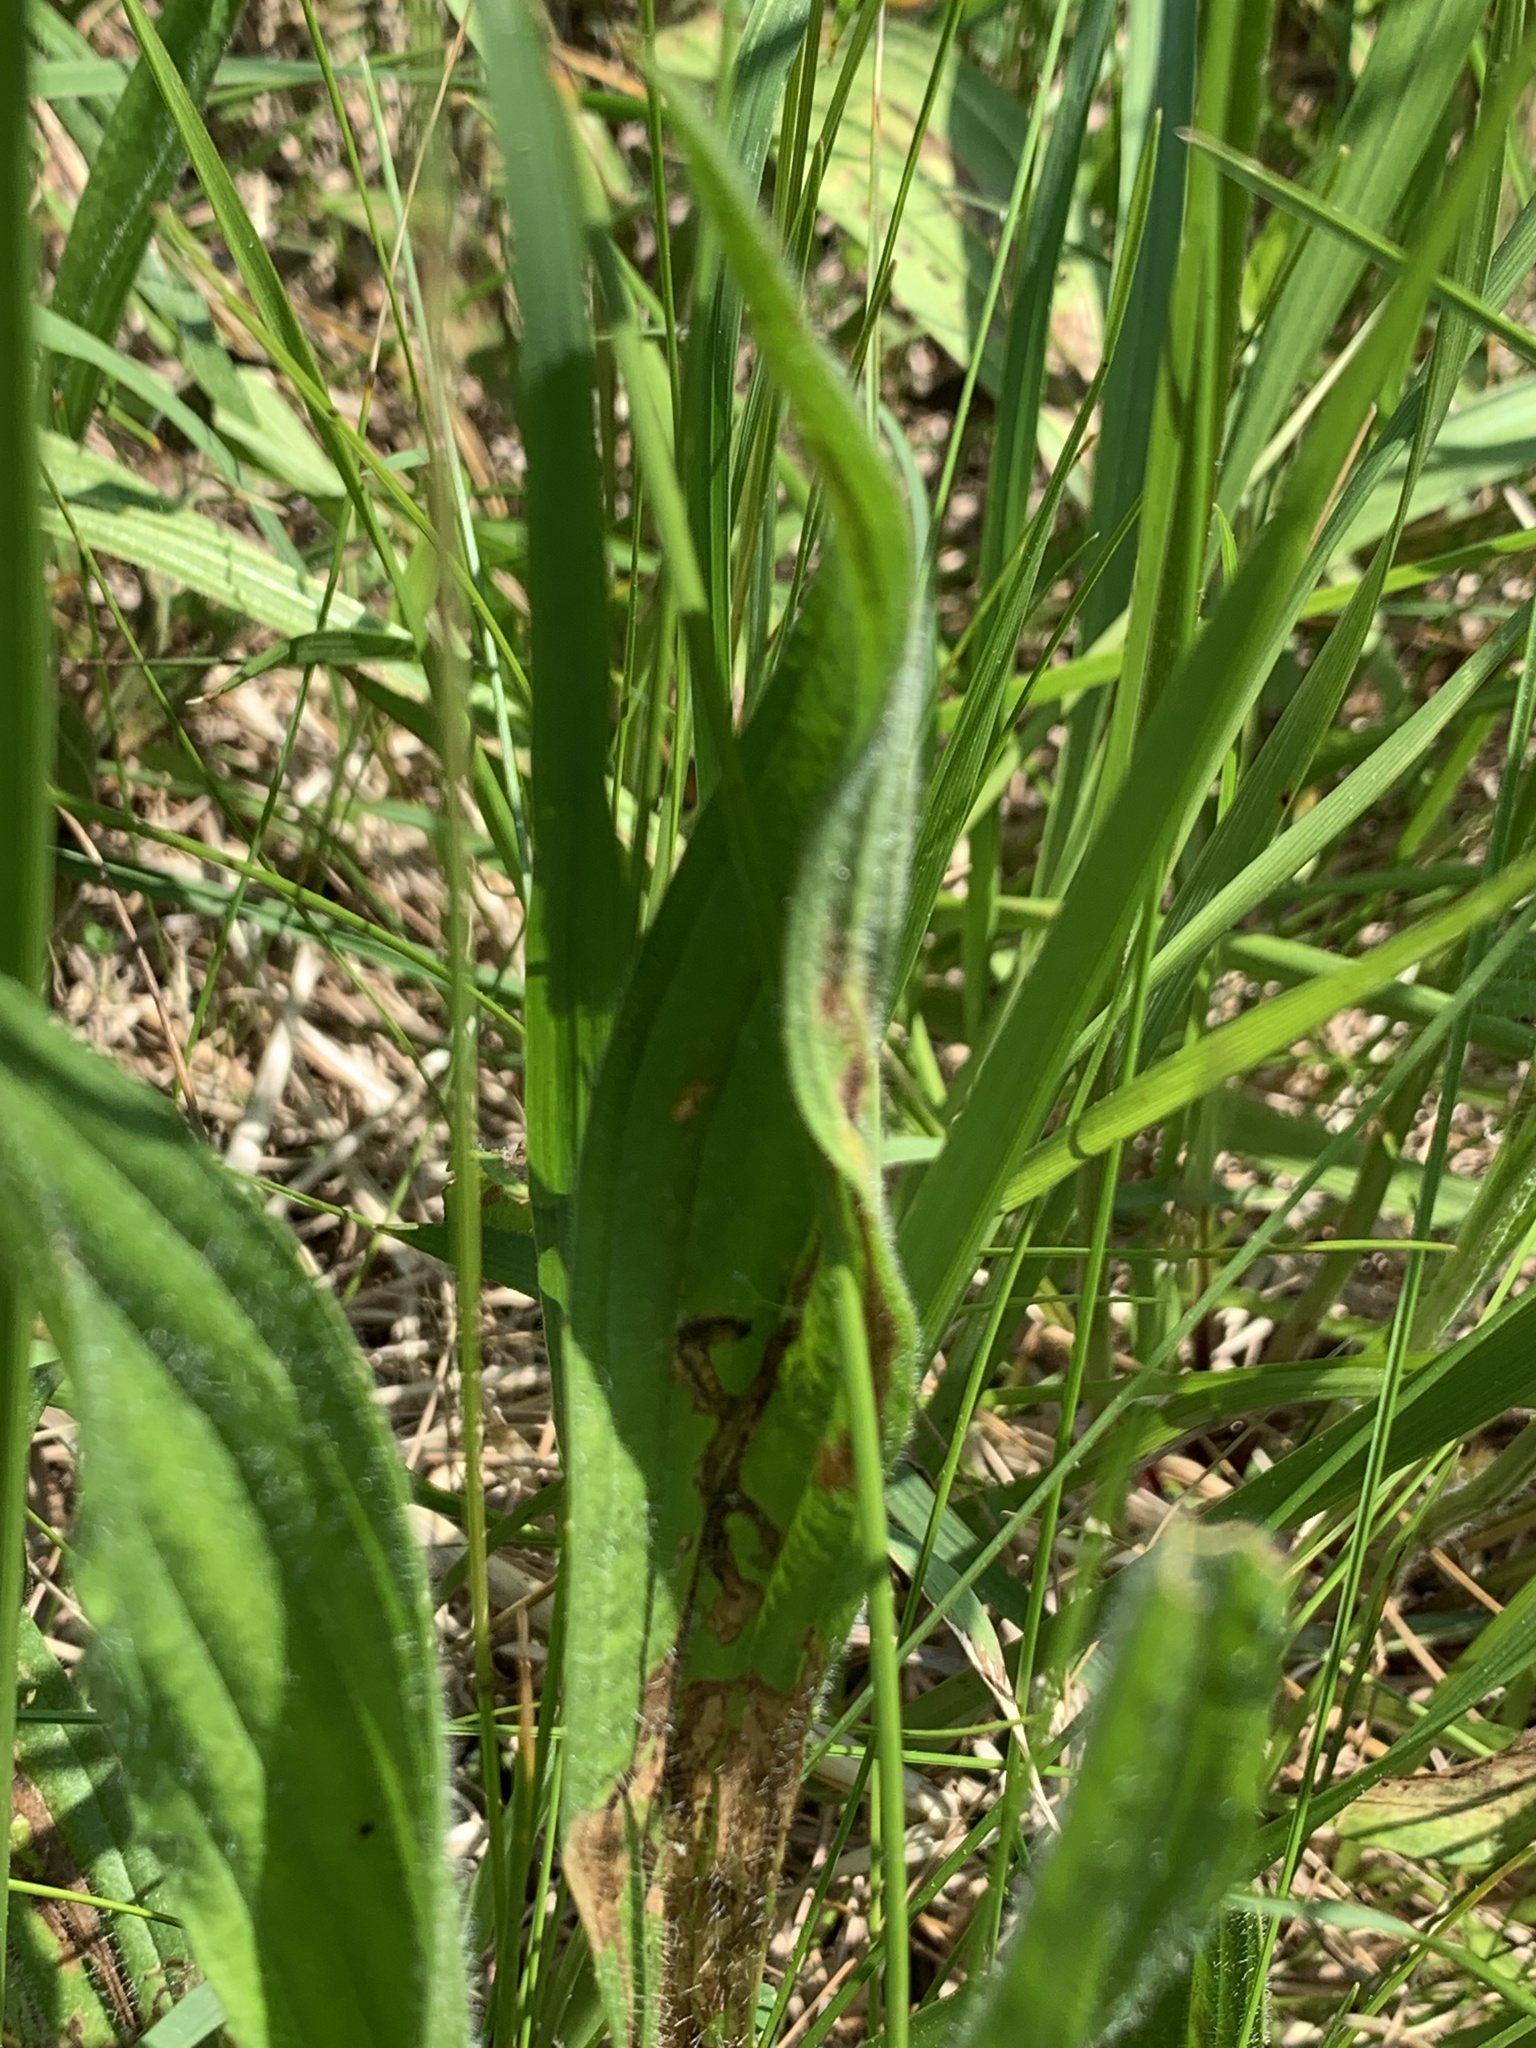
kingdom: Plantae
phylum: Tracheophyta
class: Magnoliopsida
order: Lamiales
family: Plantaginaceae
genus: Plantago
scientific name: Plantago lanceolata
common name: Ribwort plantain
